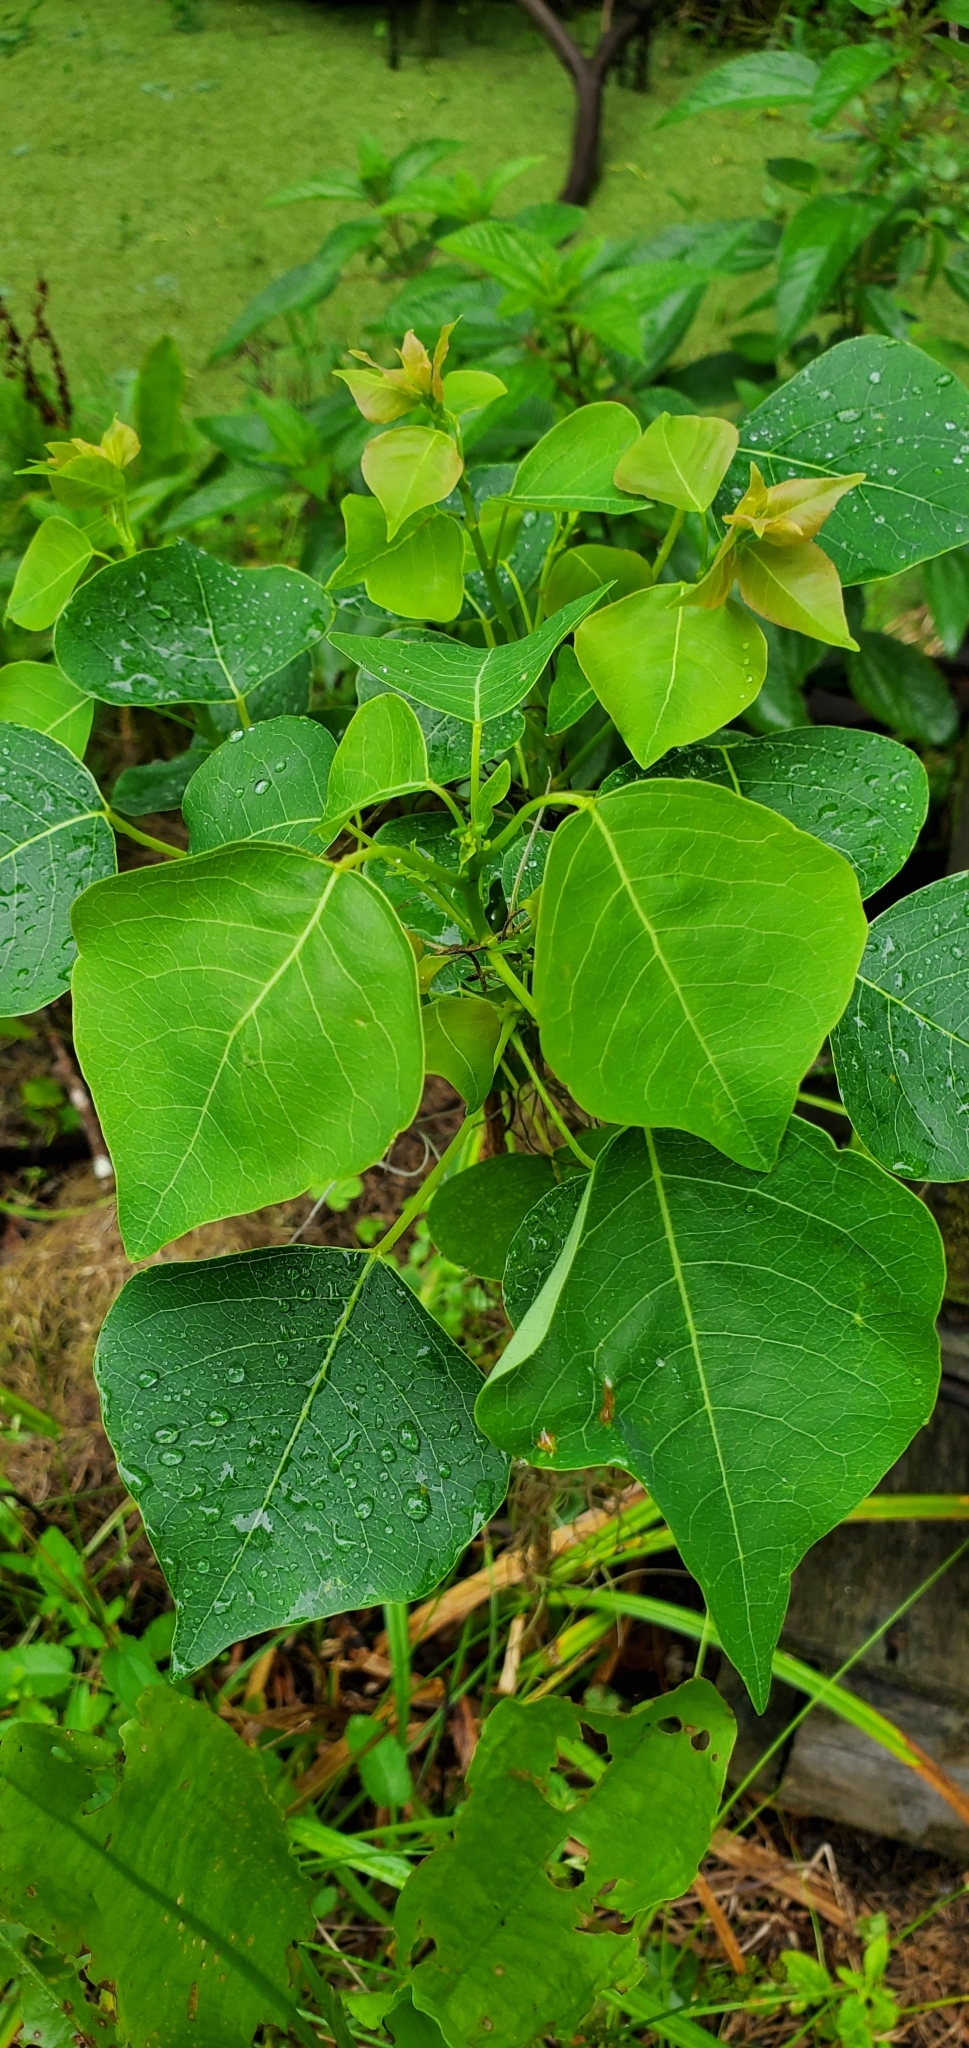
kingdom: Plantae
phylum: Tracheophyta
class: Magnoliopsida
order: Malpighiales
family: Euphorbiaceae
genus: Triadica
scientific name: Triadica sebifera
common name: Chinese tallow
